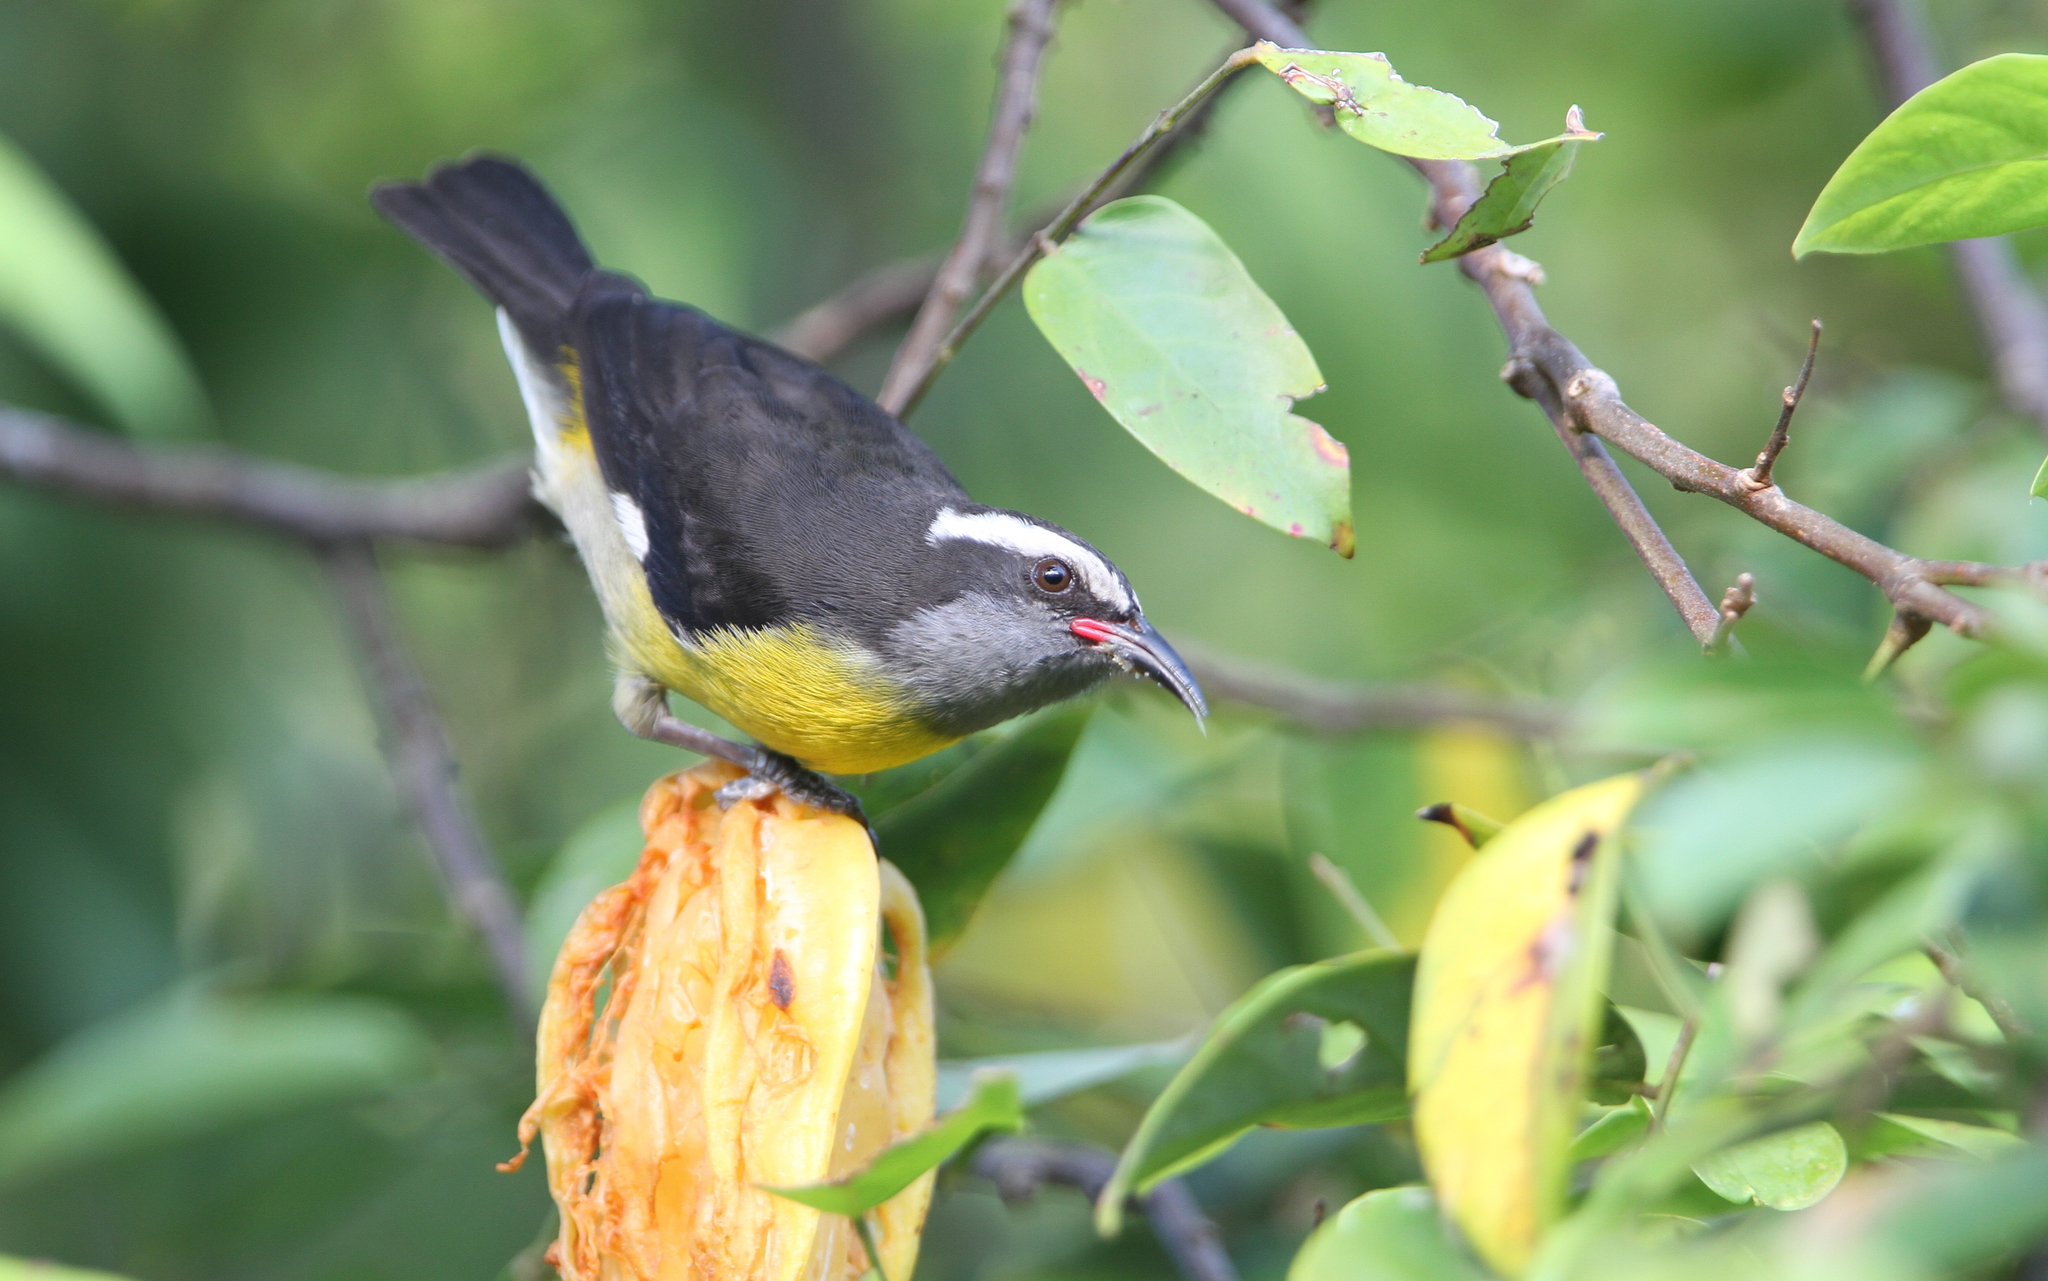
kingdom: Animalia
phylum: Chordata
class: Aves
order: Passeriformes
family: Thraupidae
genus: Coereba
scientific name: Coereba flaveola
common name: Bananaquit
